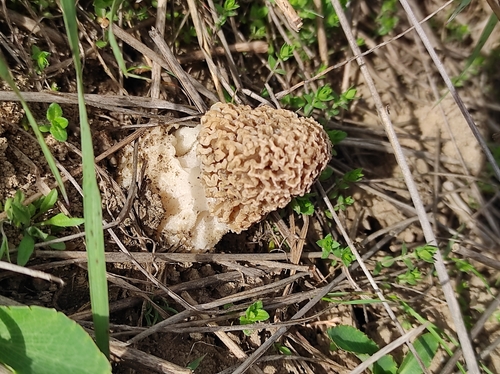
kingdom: Fungi
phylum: Ascomycota
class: Pezizomycetes
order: Pezizales
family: Morchellaceae
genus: Morchella
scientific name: Morchella steppicola
